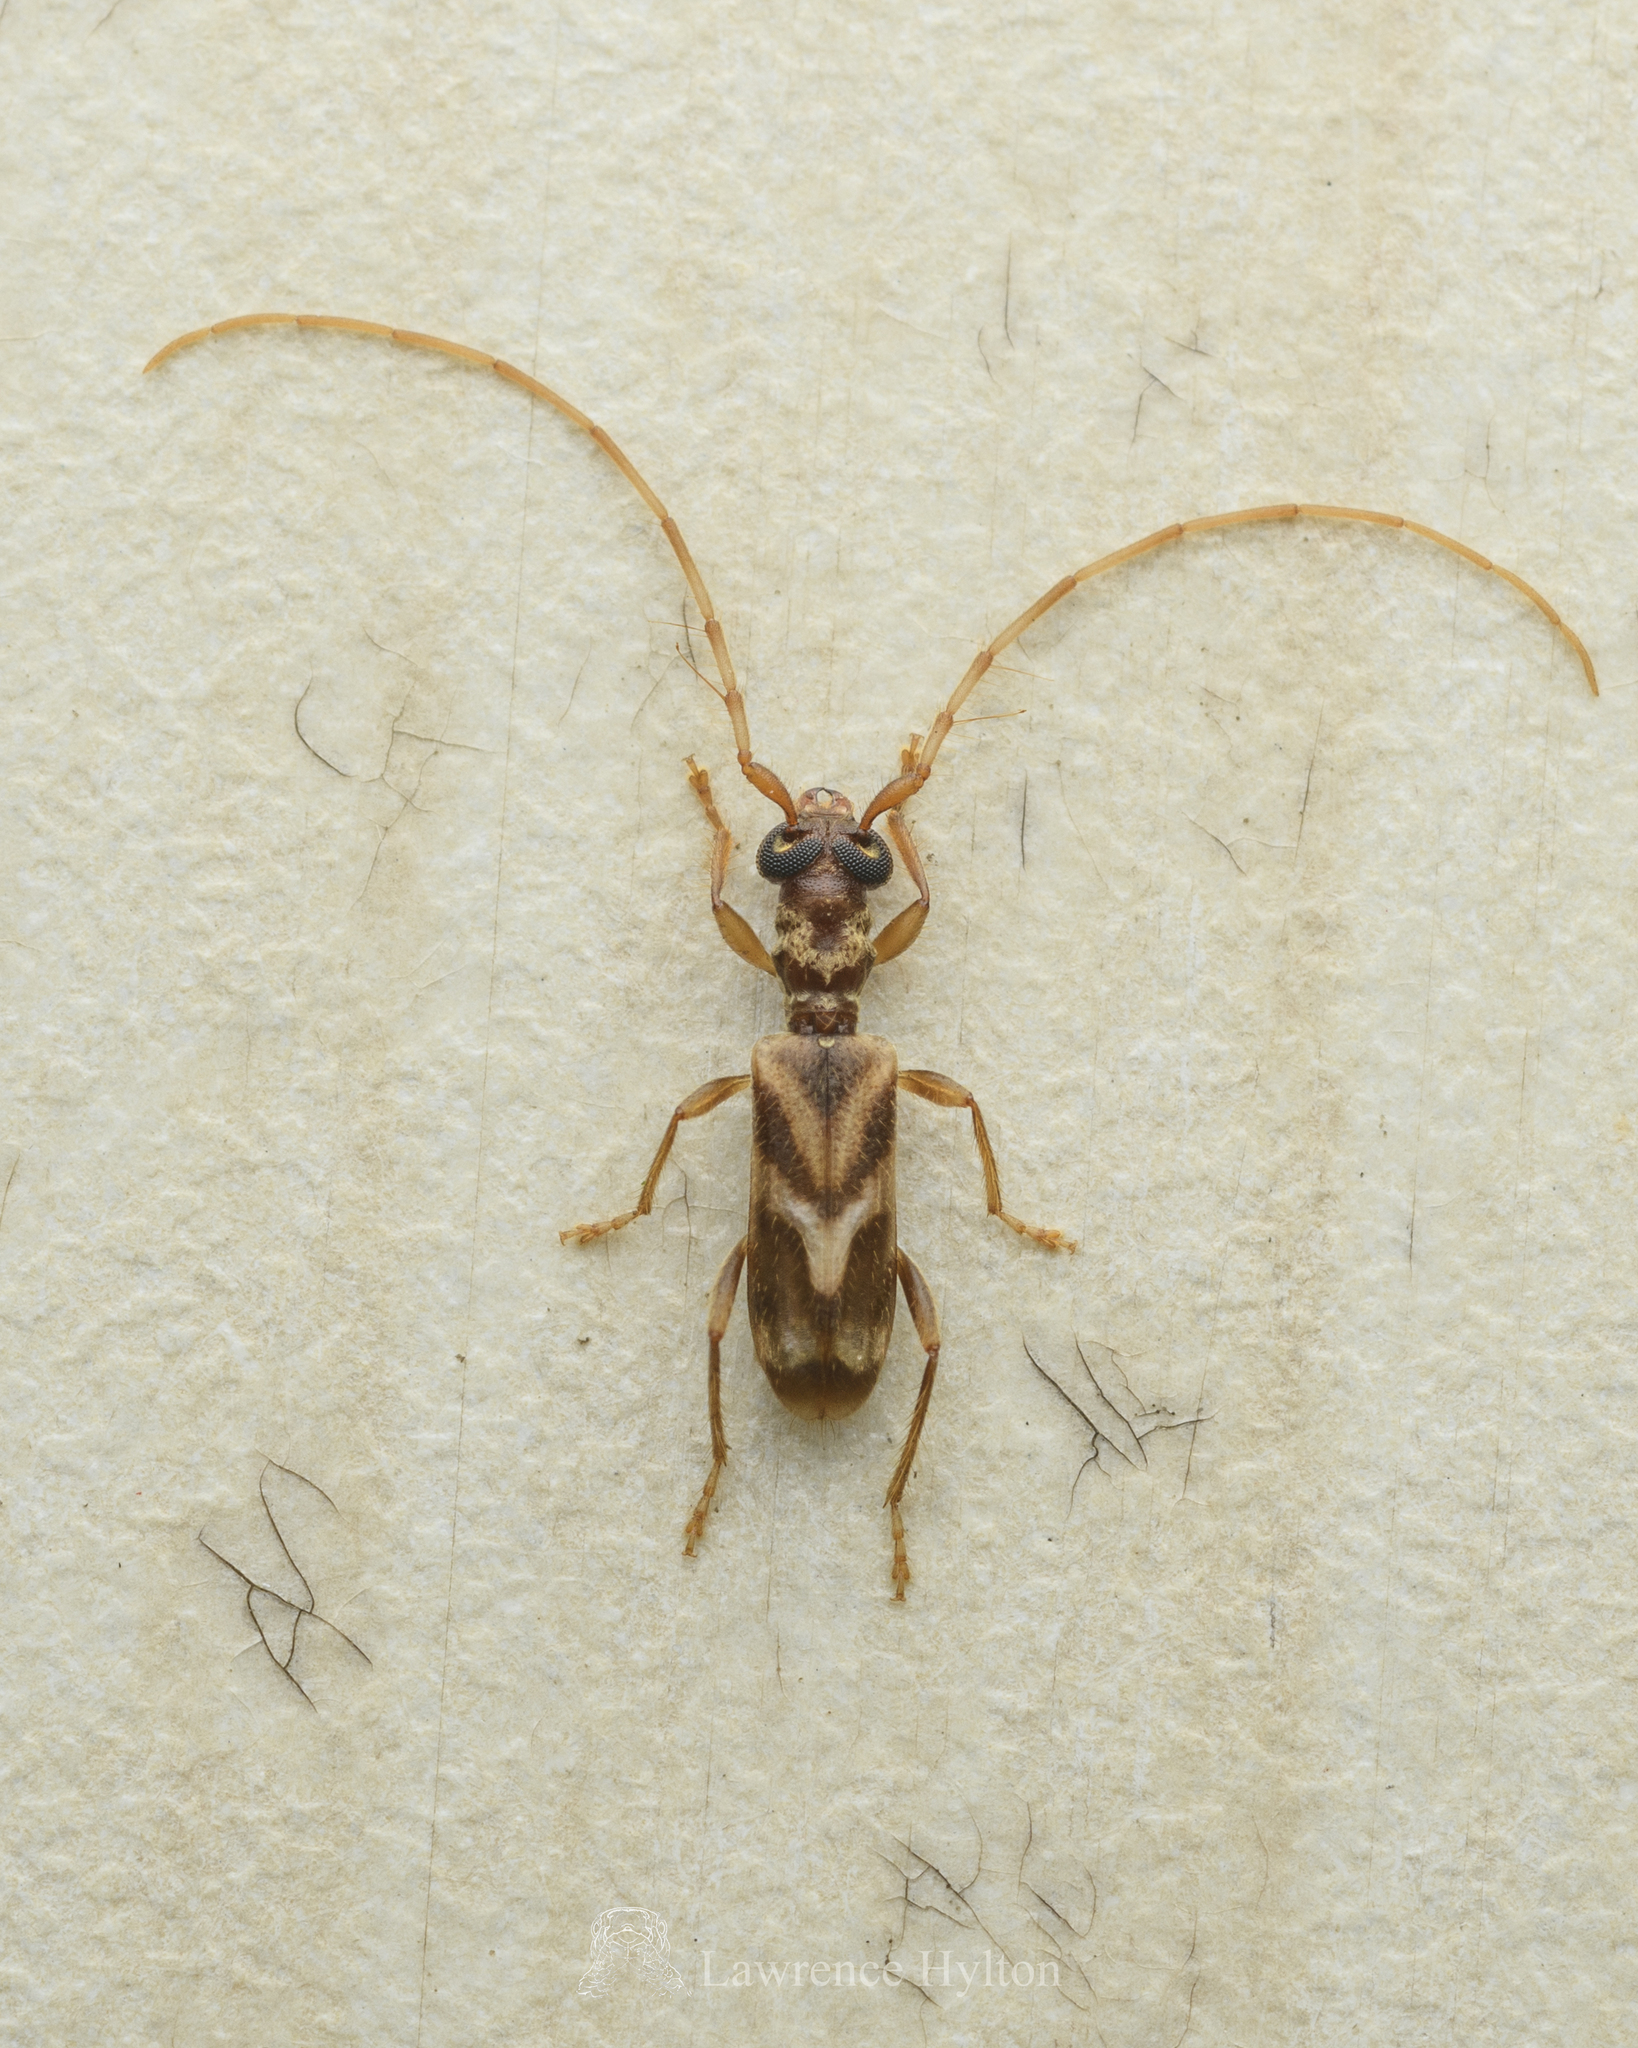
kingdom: Animalia
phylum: Arthropoda
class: Insecta
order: Coleoptera
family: Cerambycidae
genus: Stenhomalus
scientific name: Stenhomalus taiwanus
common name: Taiwan slender longhorned beetle
